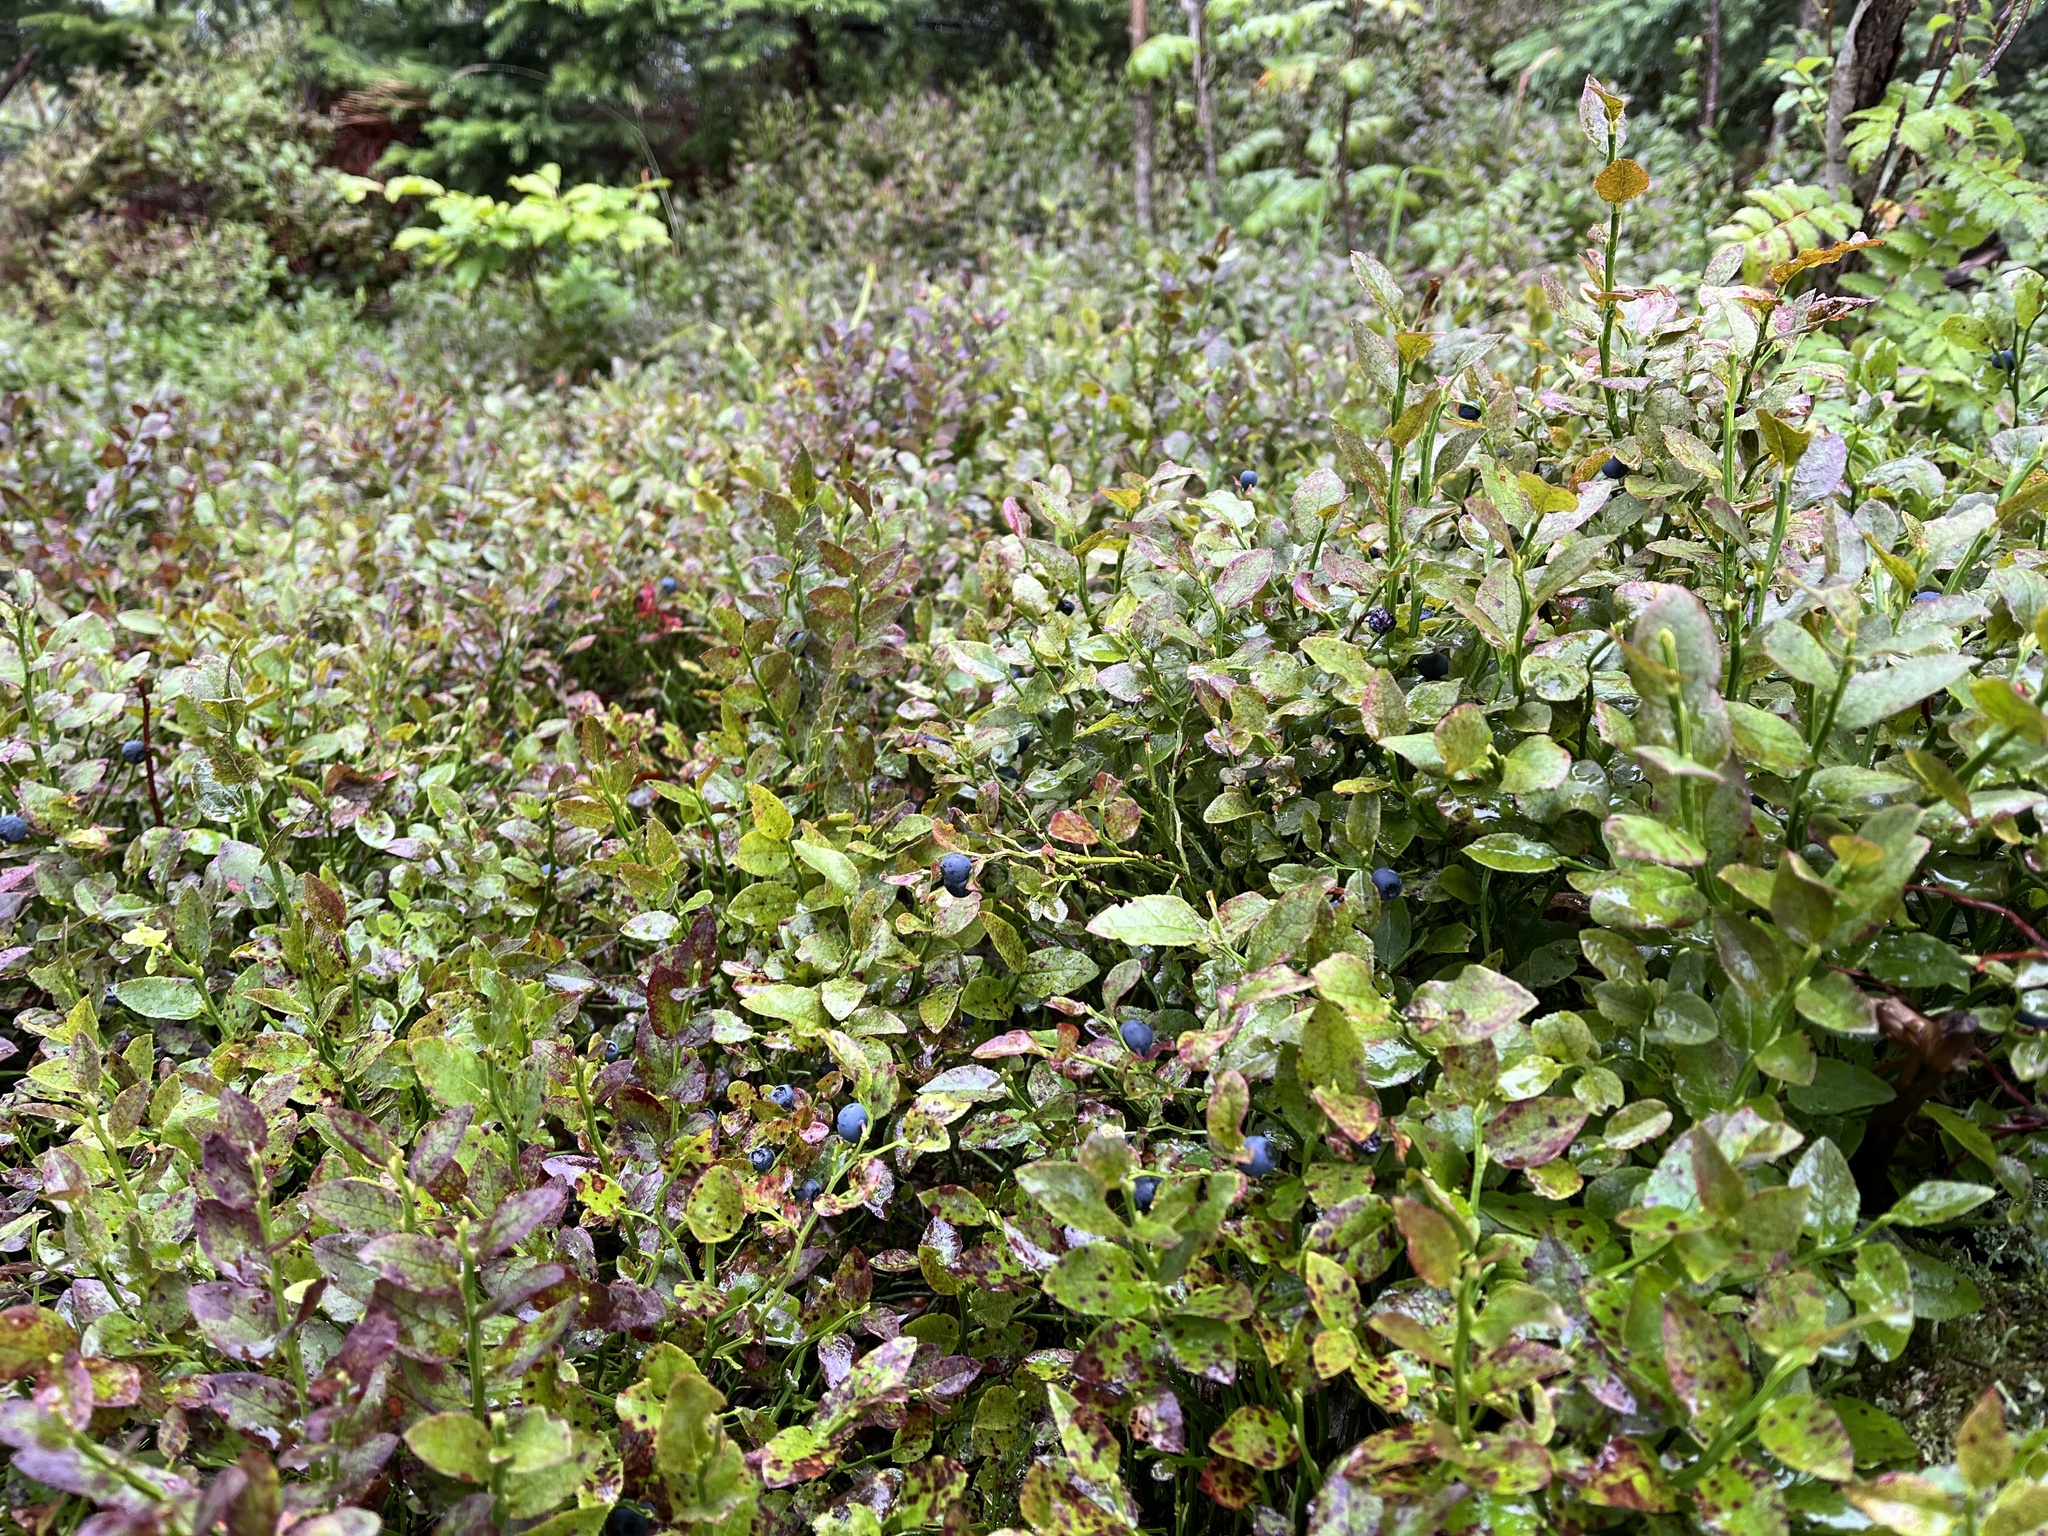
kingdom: Plantae
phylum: Tracheophyta
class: Magnoliopsida
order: Ericales
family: Ericaceae
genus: Vaccinium
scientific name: Vaccinium myrtillus
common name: Bilberry
